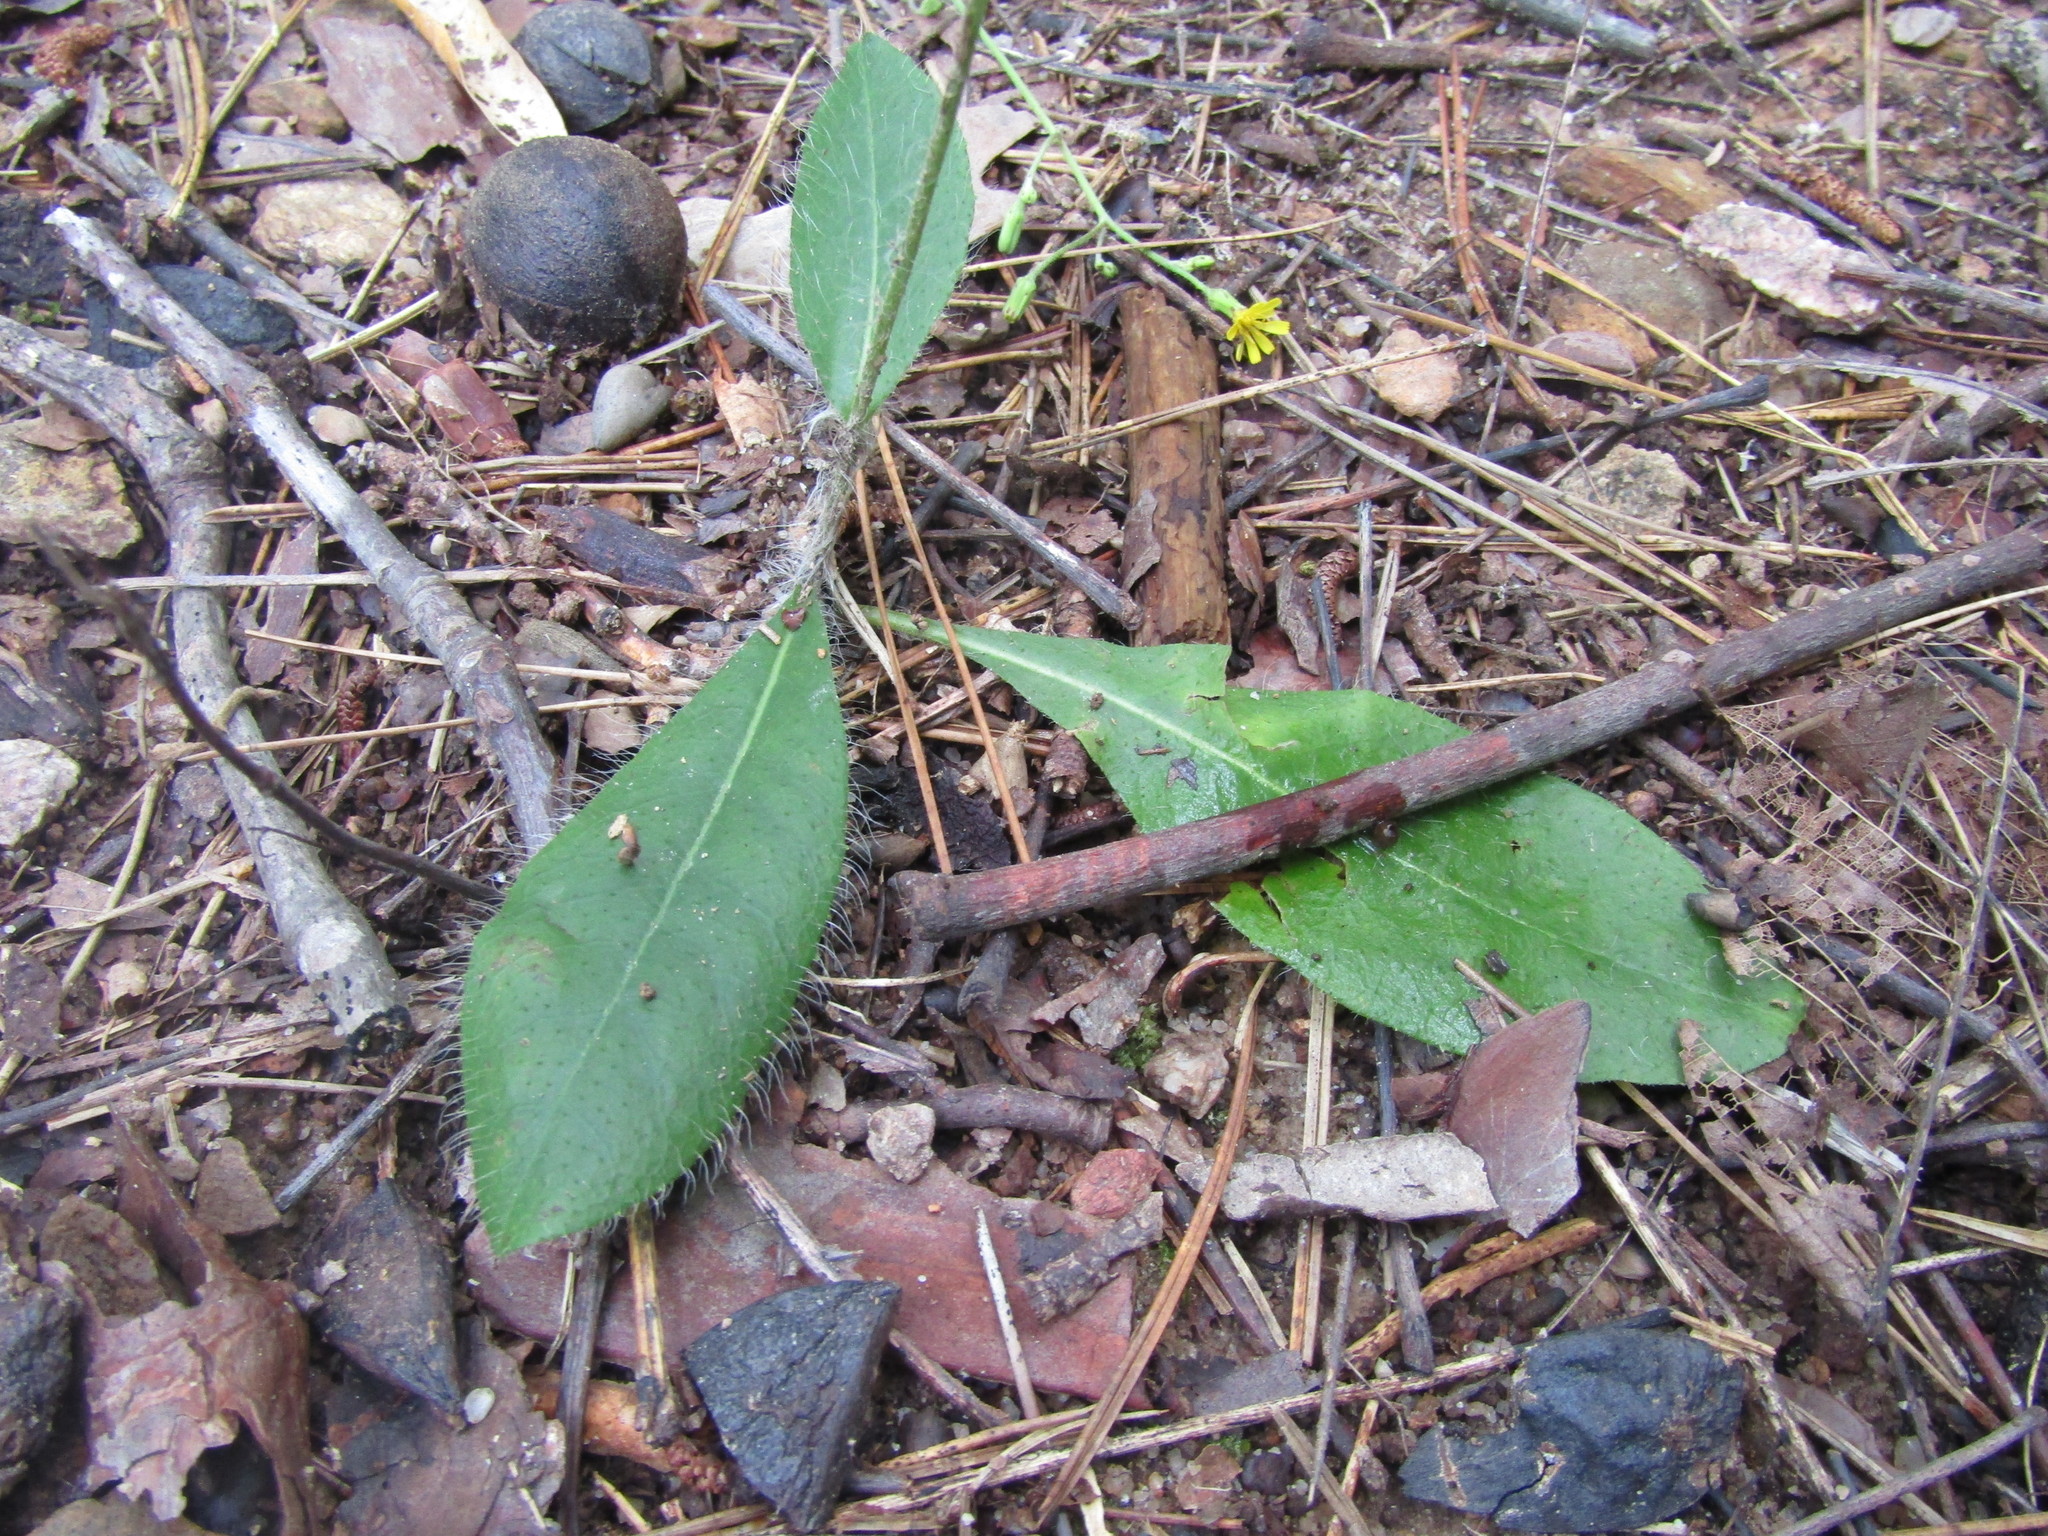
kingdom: Plantae
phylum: Tracheophyta
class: Magnoliopsida
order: Asterales
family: Asteraceae
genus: Hieracium
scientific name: Hieracium gronovii
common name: Beaked hawkweed
